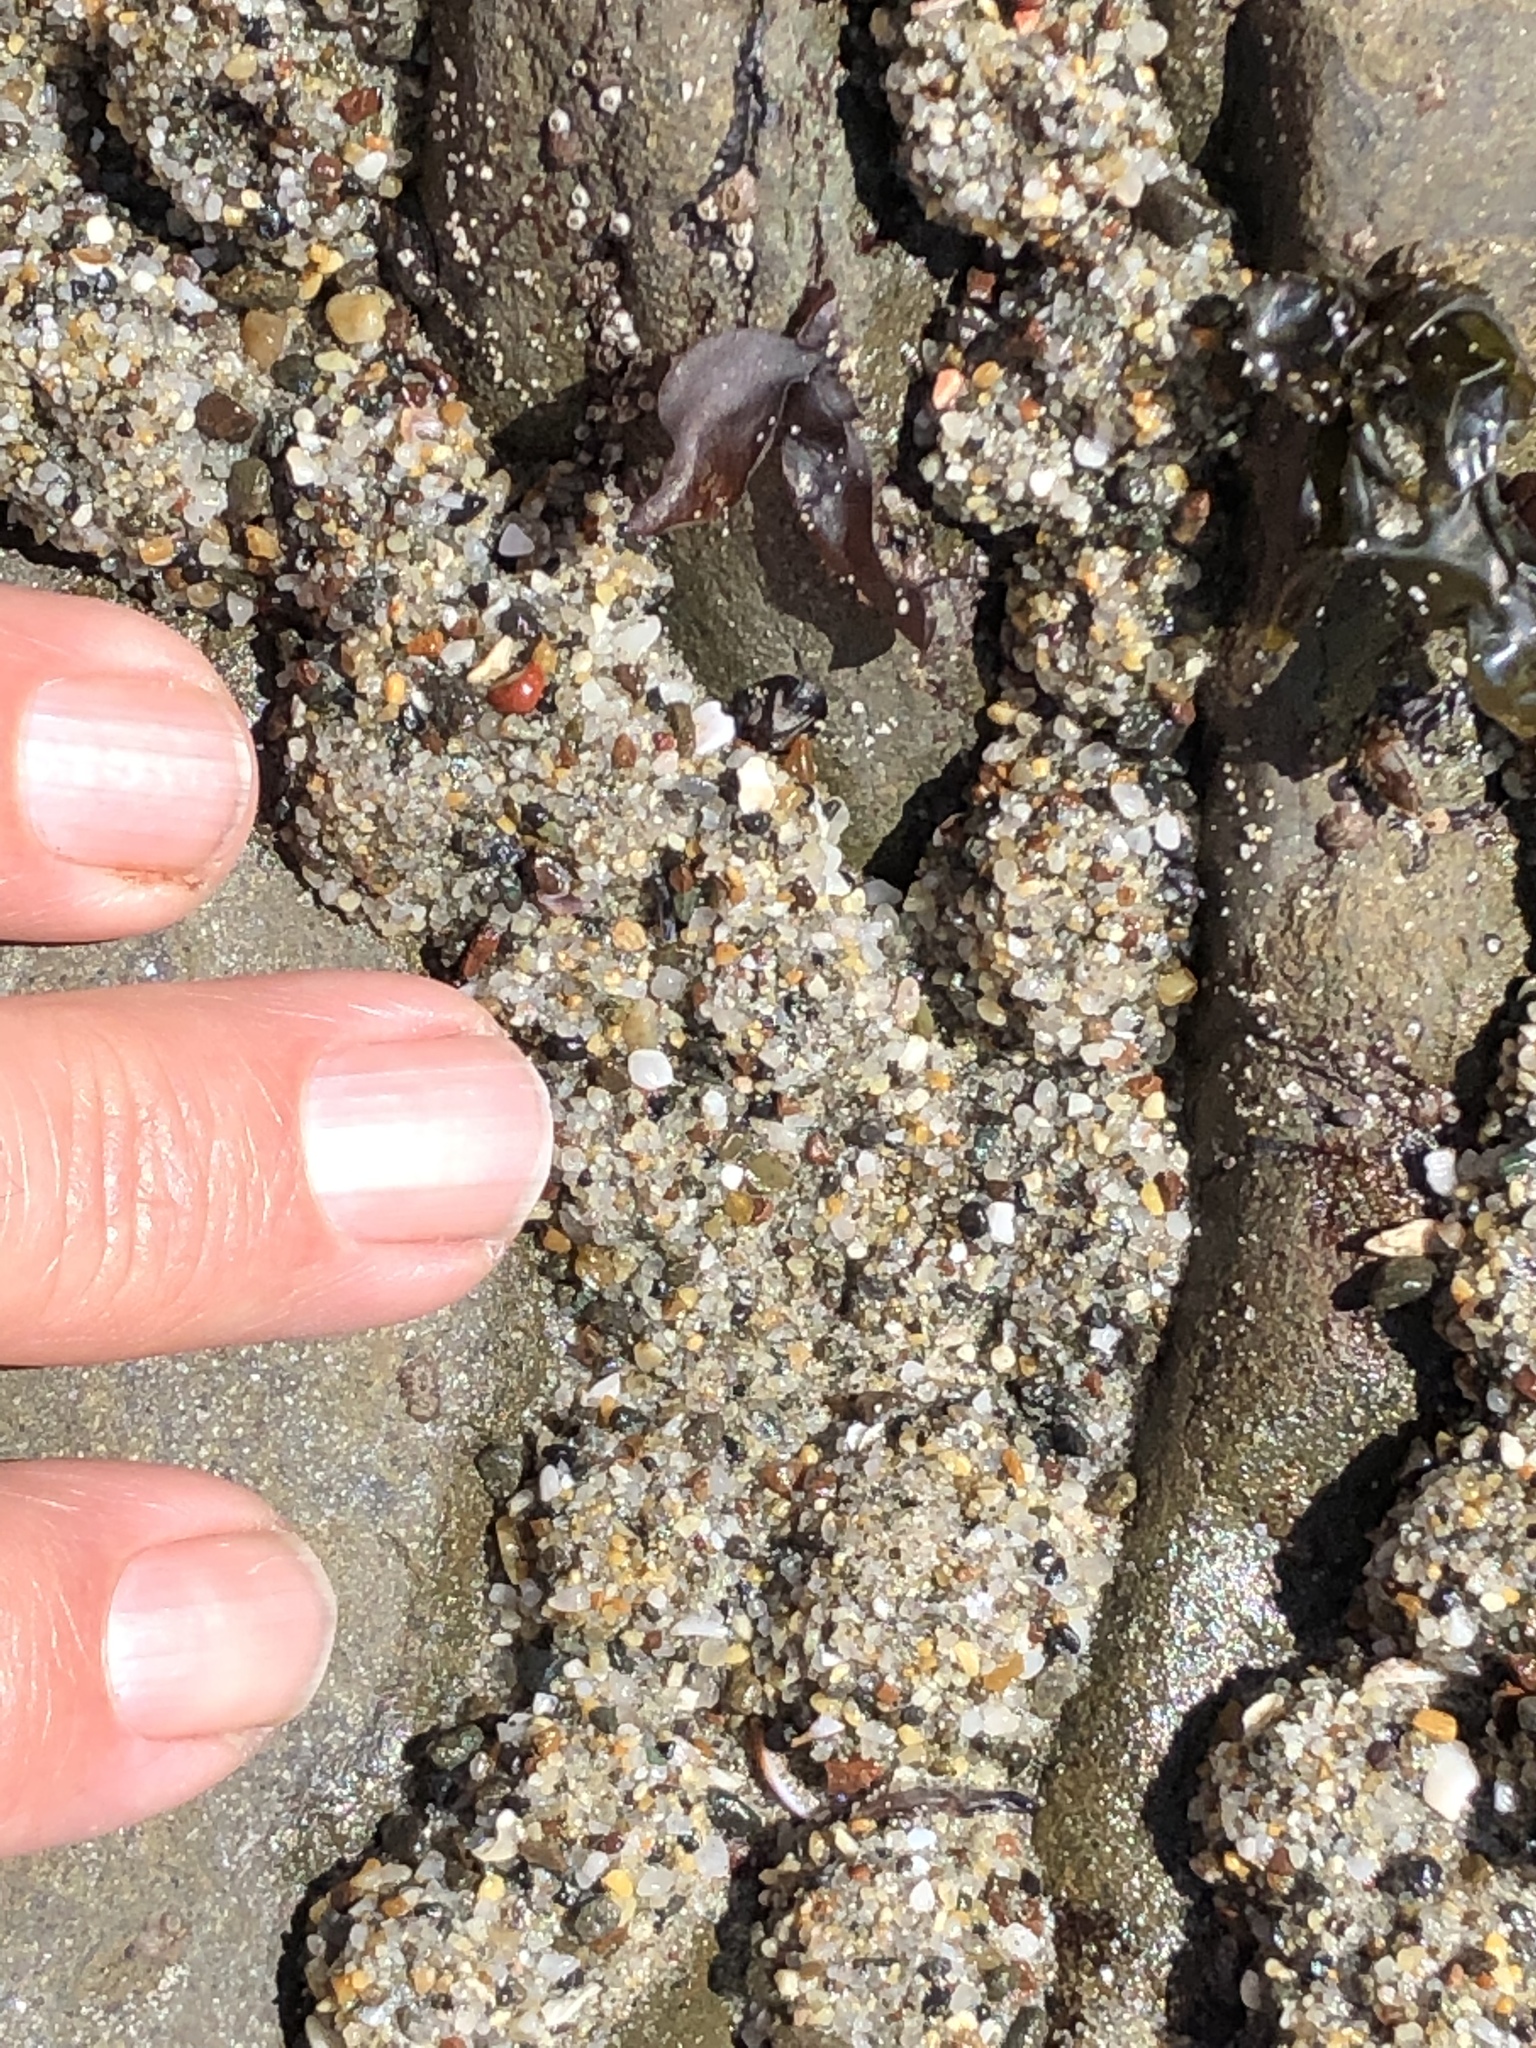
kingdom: Animalia
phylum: Cnidaria
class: Anthozoa
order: Actiniaria
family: Actiniidae
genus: Anthopleura
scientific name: Anthopleura elegantissima
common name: Clonal anemone
